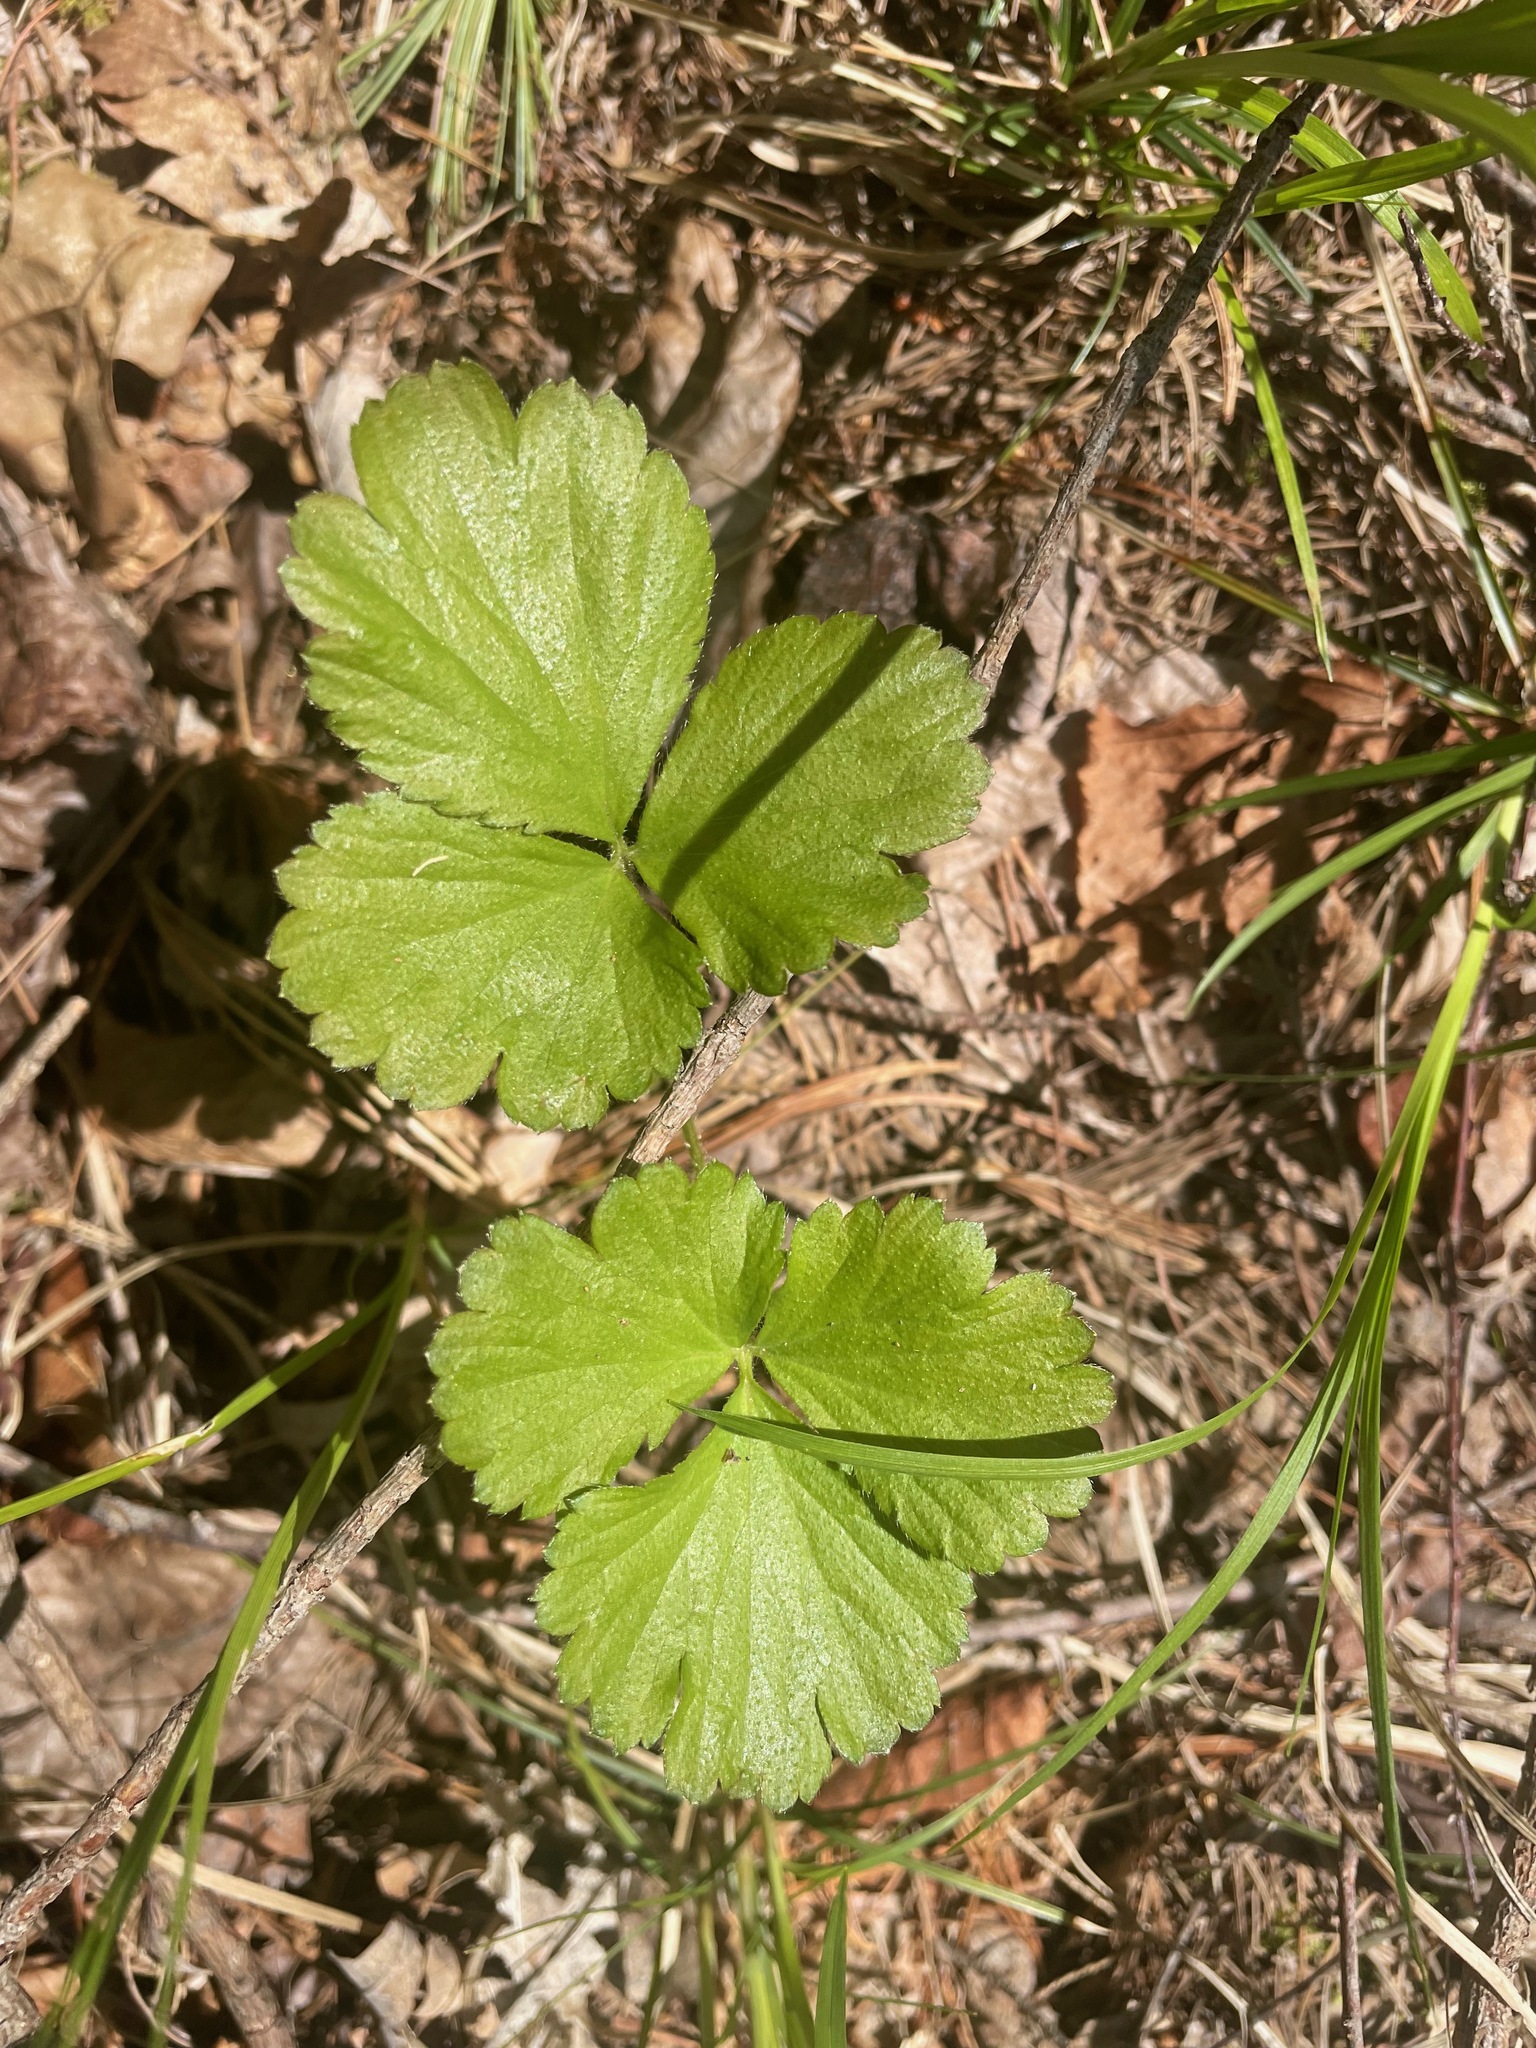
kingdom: Plantae
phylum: Tracheophyta
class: Magnoliopsida
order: Rosales
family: Rosaceae
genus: Geum
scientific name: Geum fragarioides
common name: Appalachian barren strawberry
